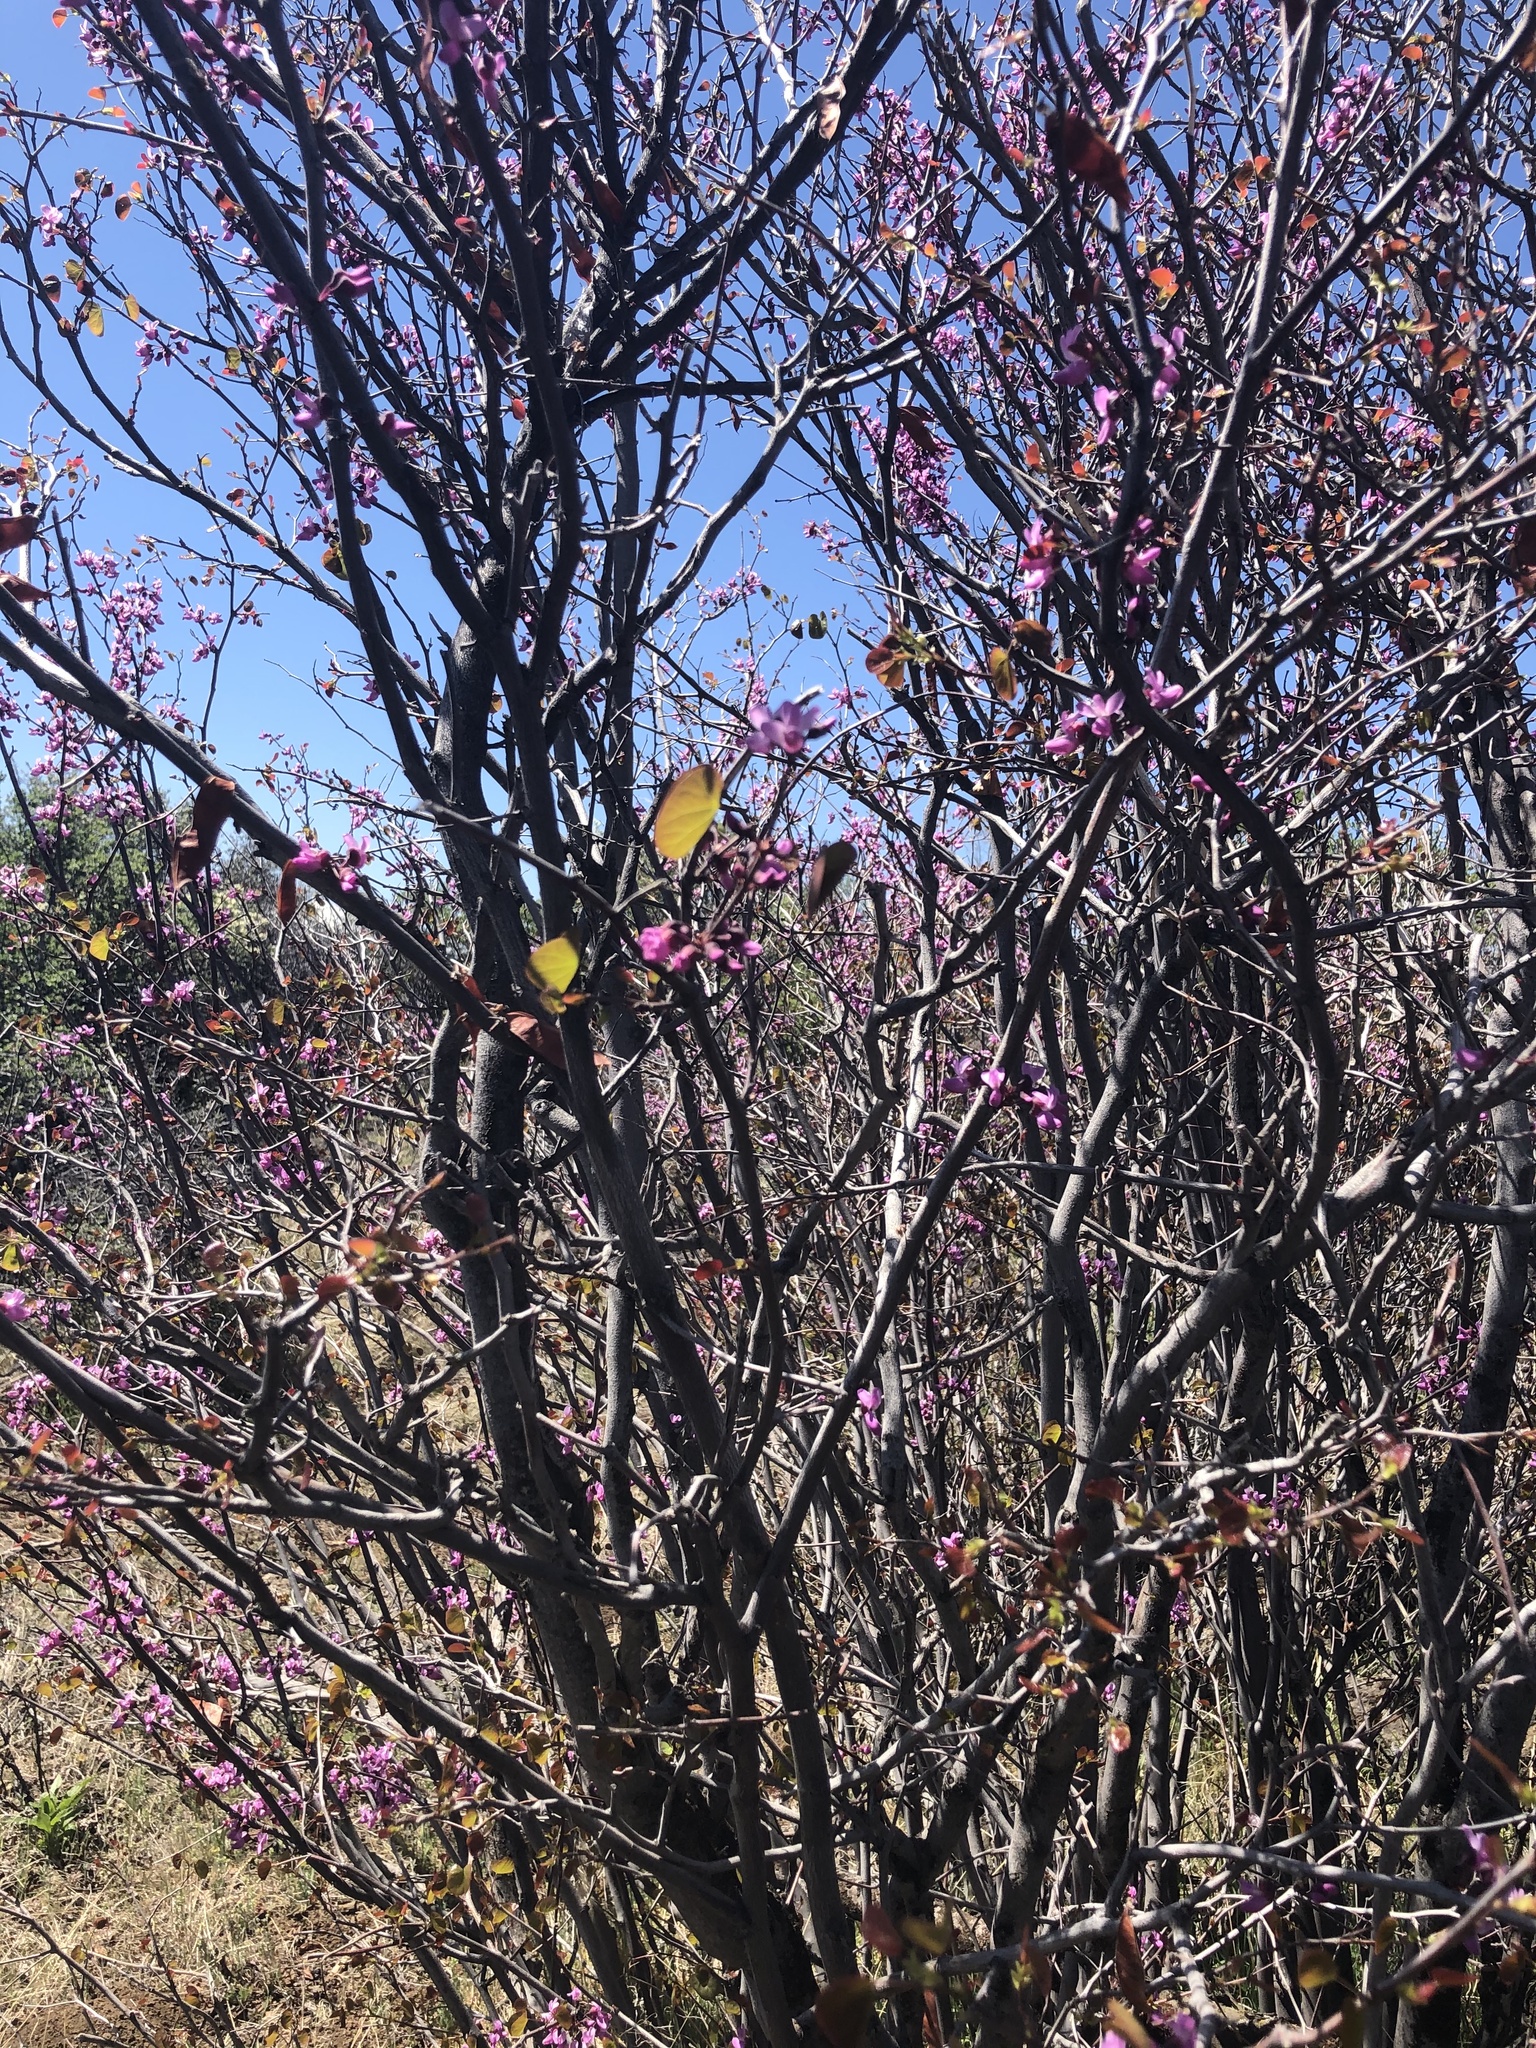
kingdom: Plantae
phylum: Tracheophyta
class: Magnoliopsida
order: Fabales
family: Fabaceae
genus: Cercis
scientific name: Cercis occidentalis
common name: California redbud
